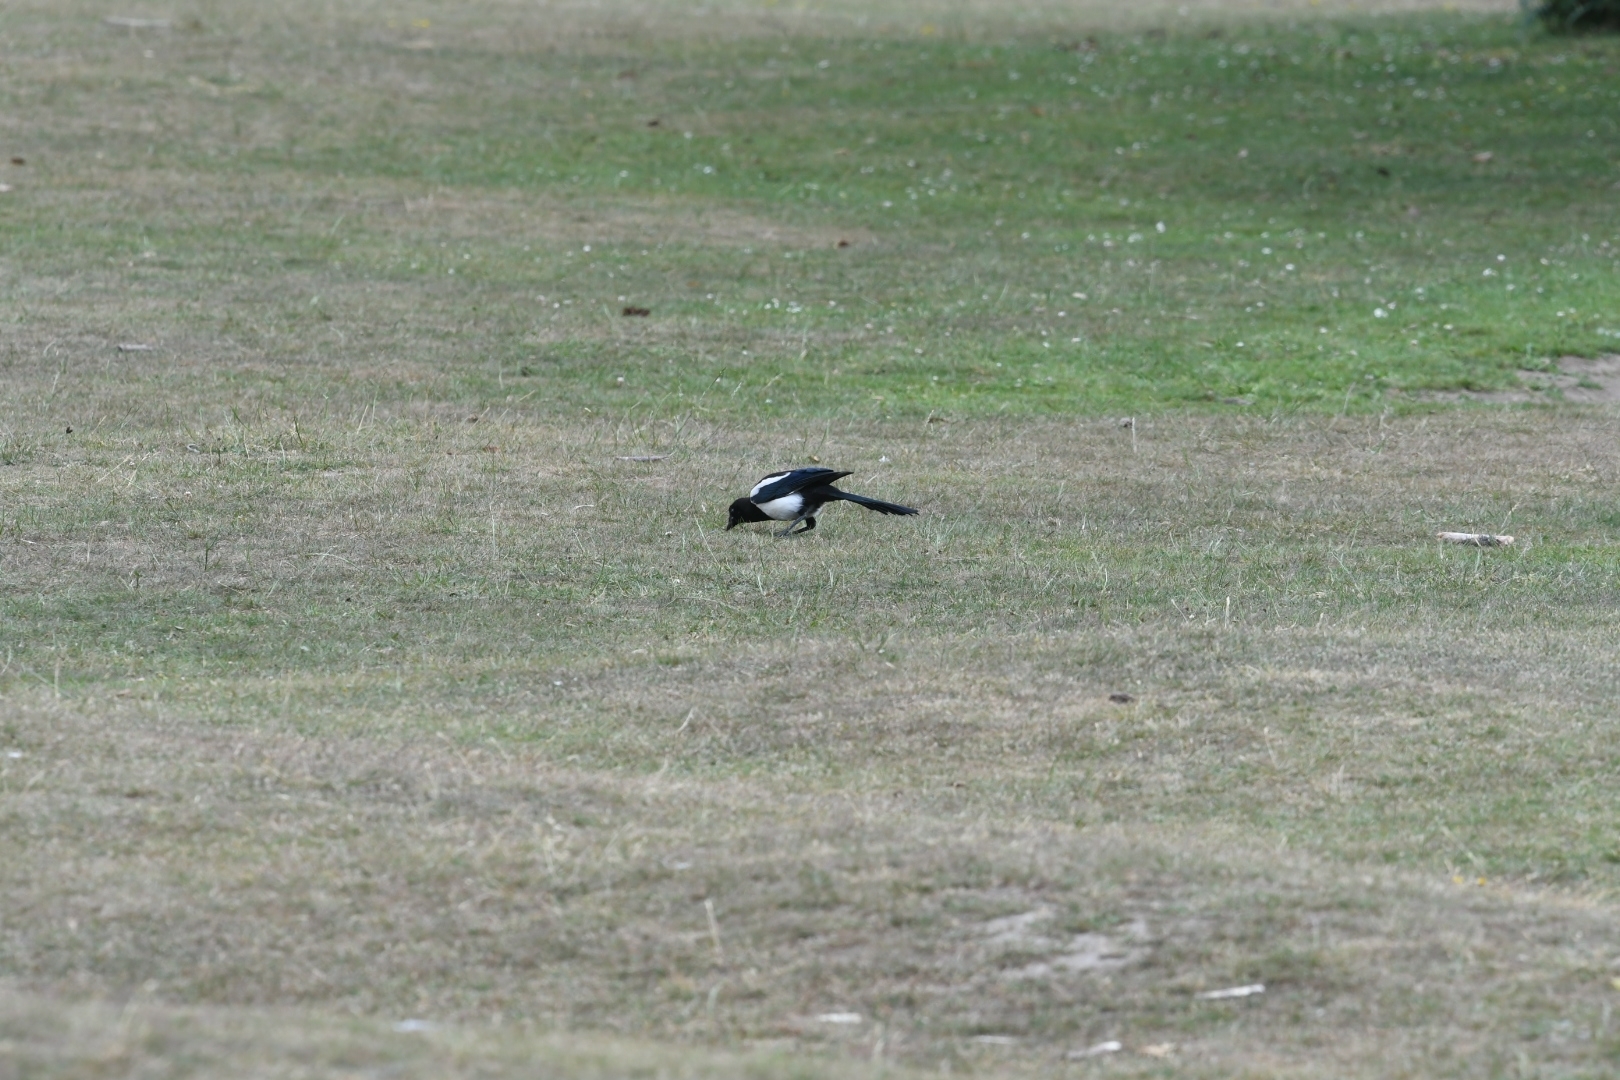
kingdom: Animalia
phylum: Chordata
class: Aves
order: Passeriformes
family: Corvidae
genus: Pica
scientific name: Pica pica
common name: Eurasian magpie
